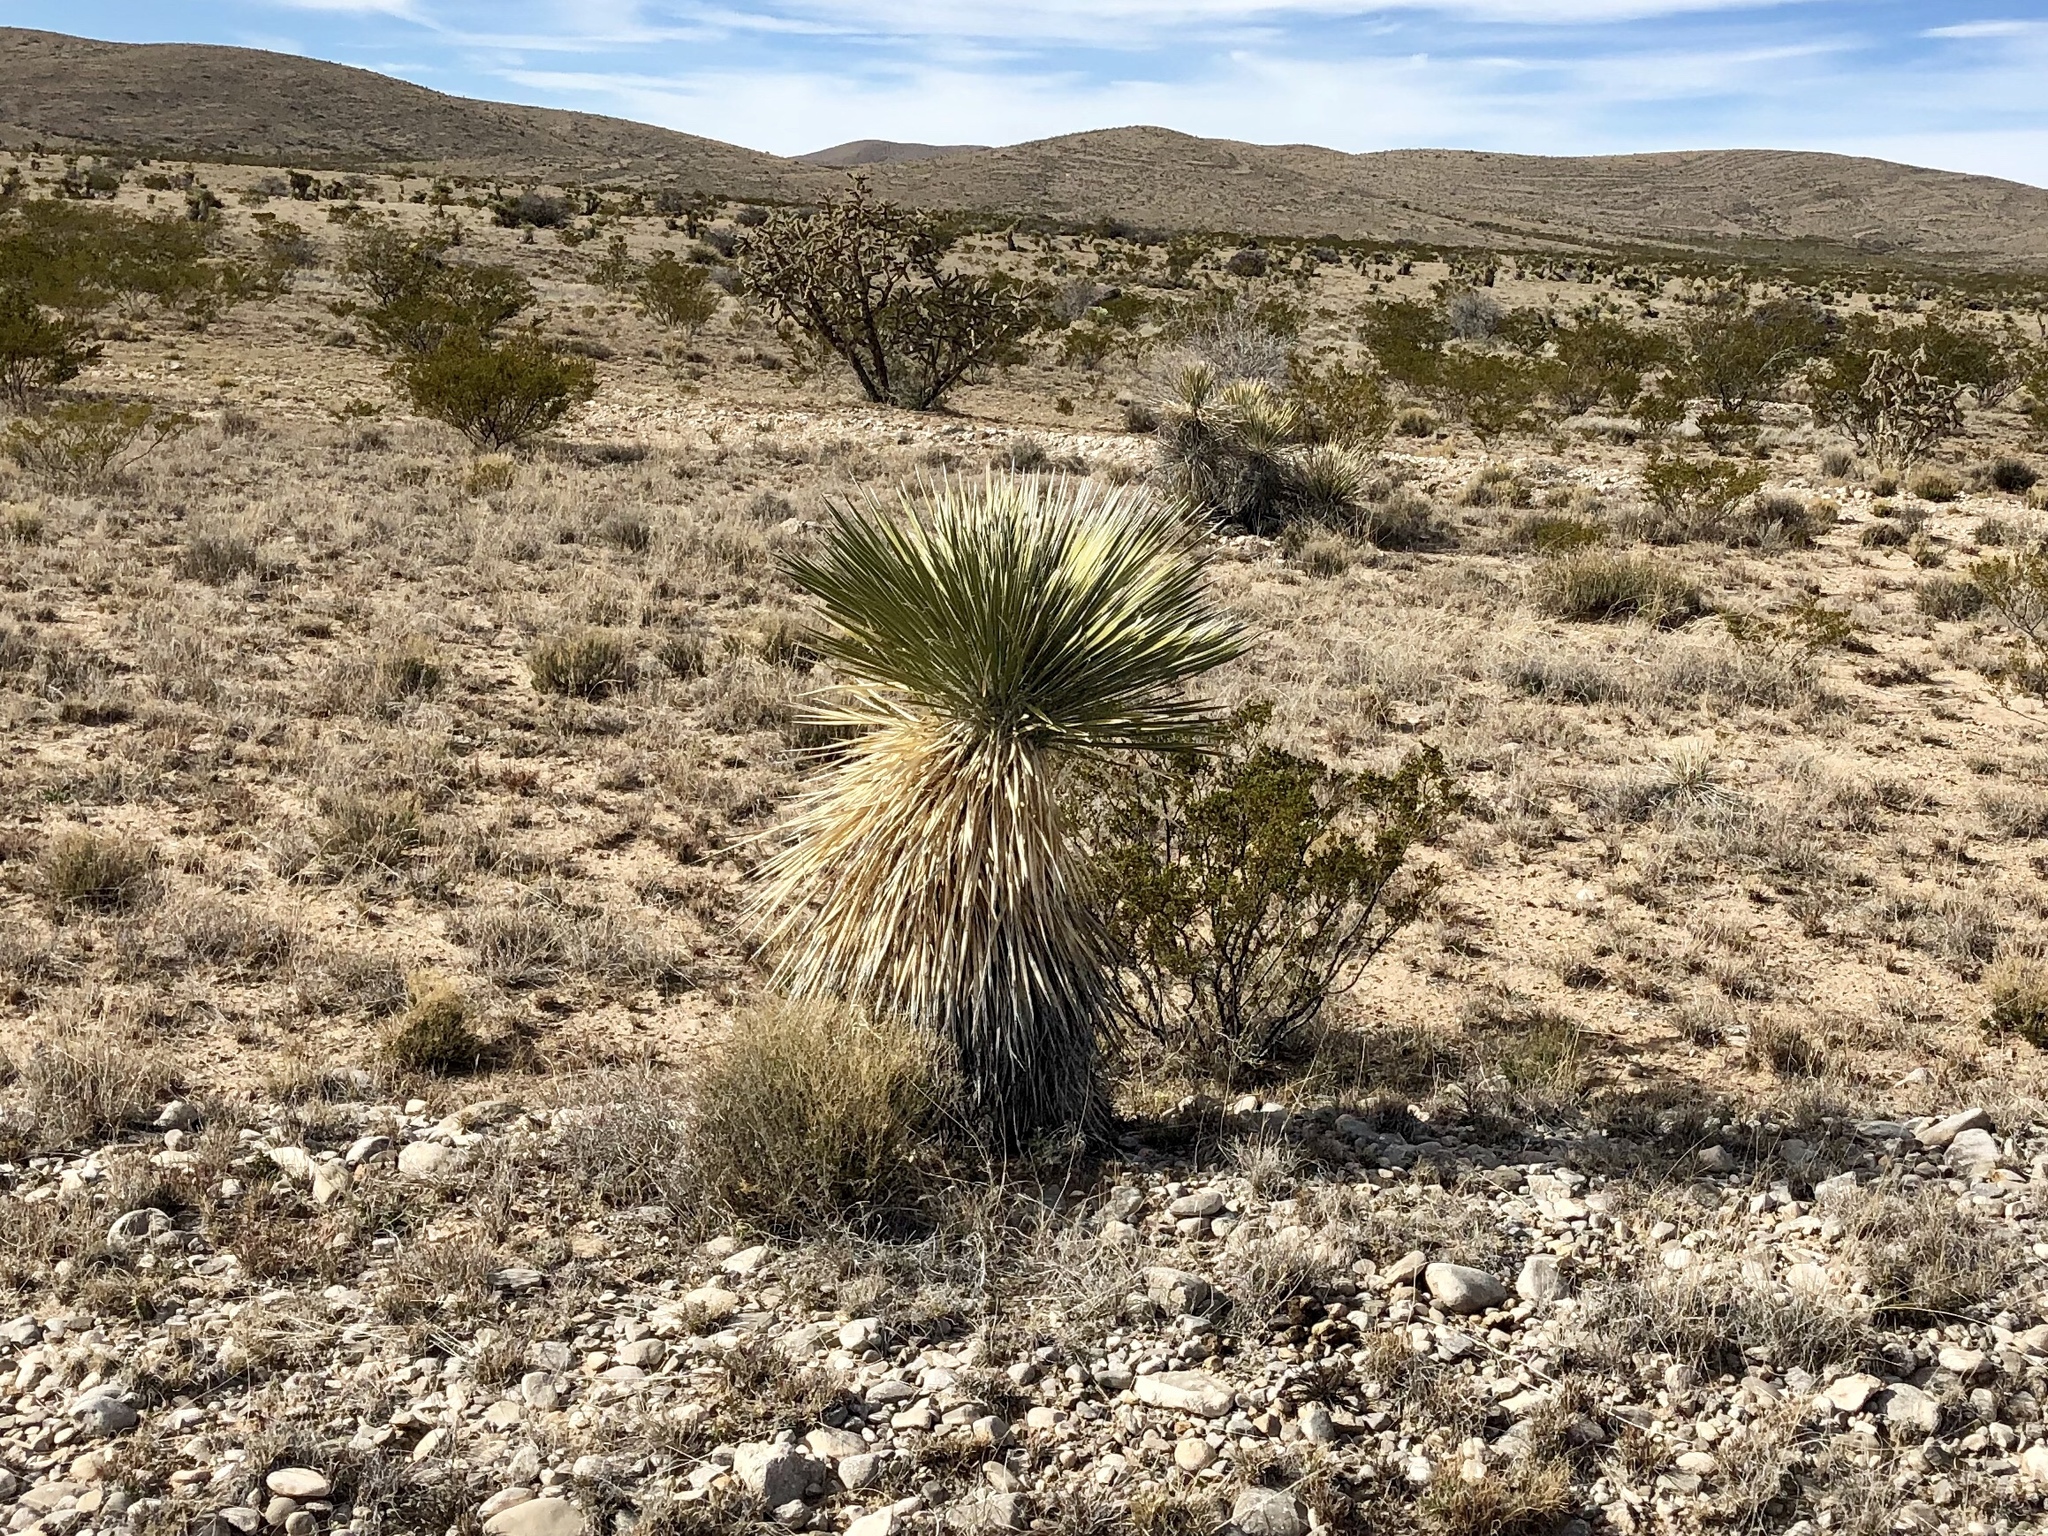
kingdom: Plantae
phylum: Tracheophyta
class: Liliopsida
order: Asparagales
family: Asparagaceae
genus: Yucca
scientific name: Yucca elata
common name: Palmella
